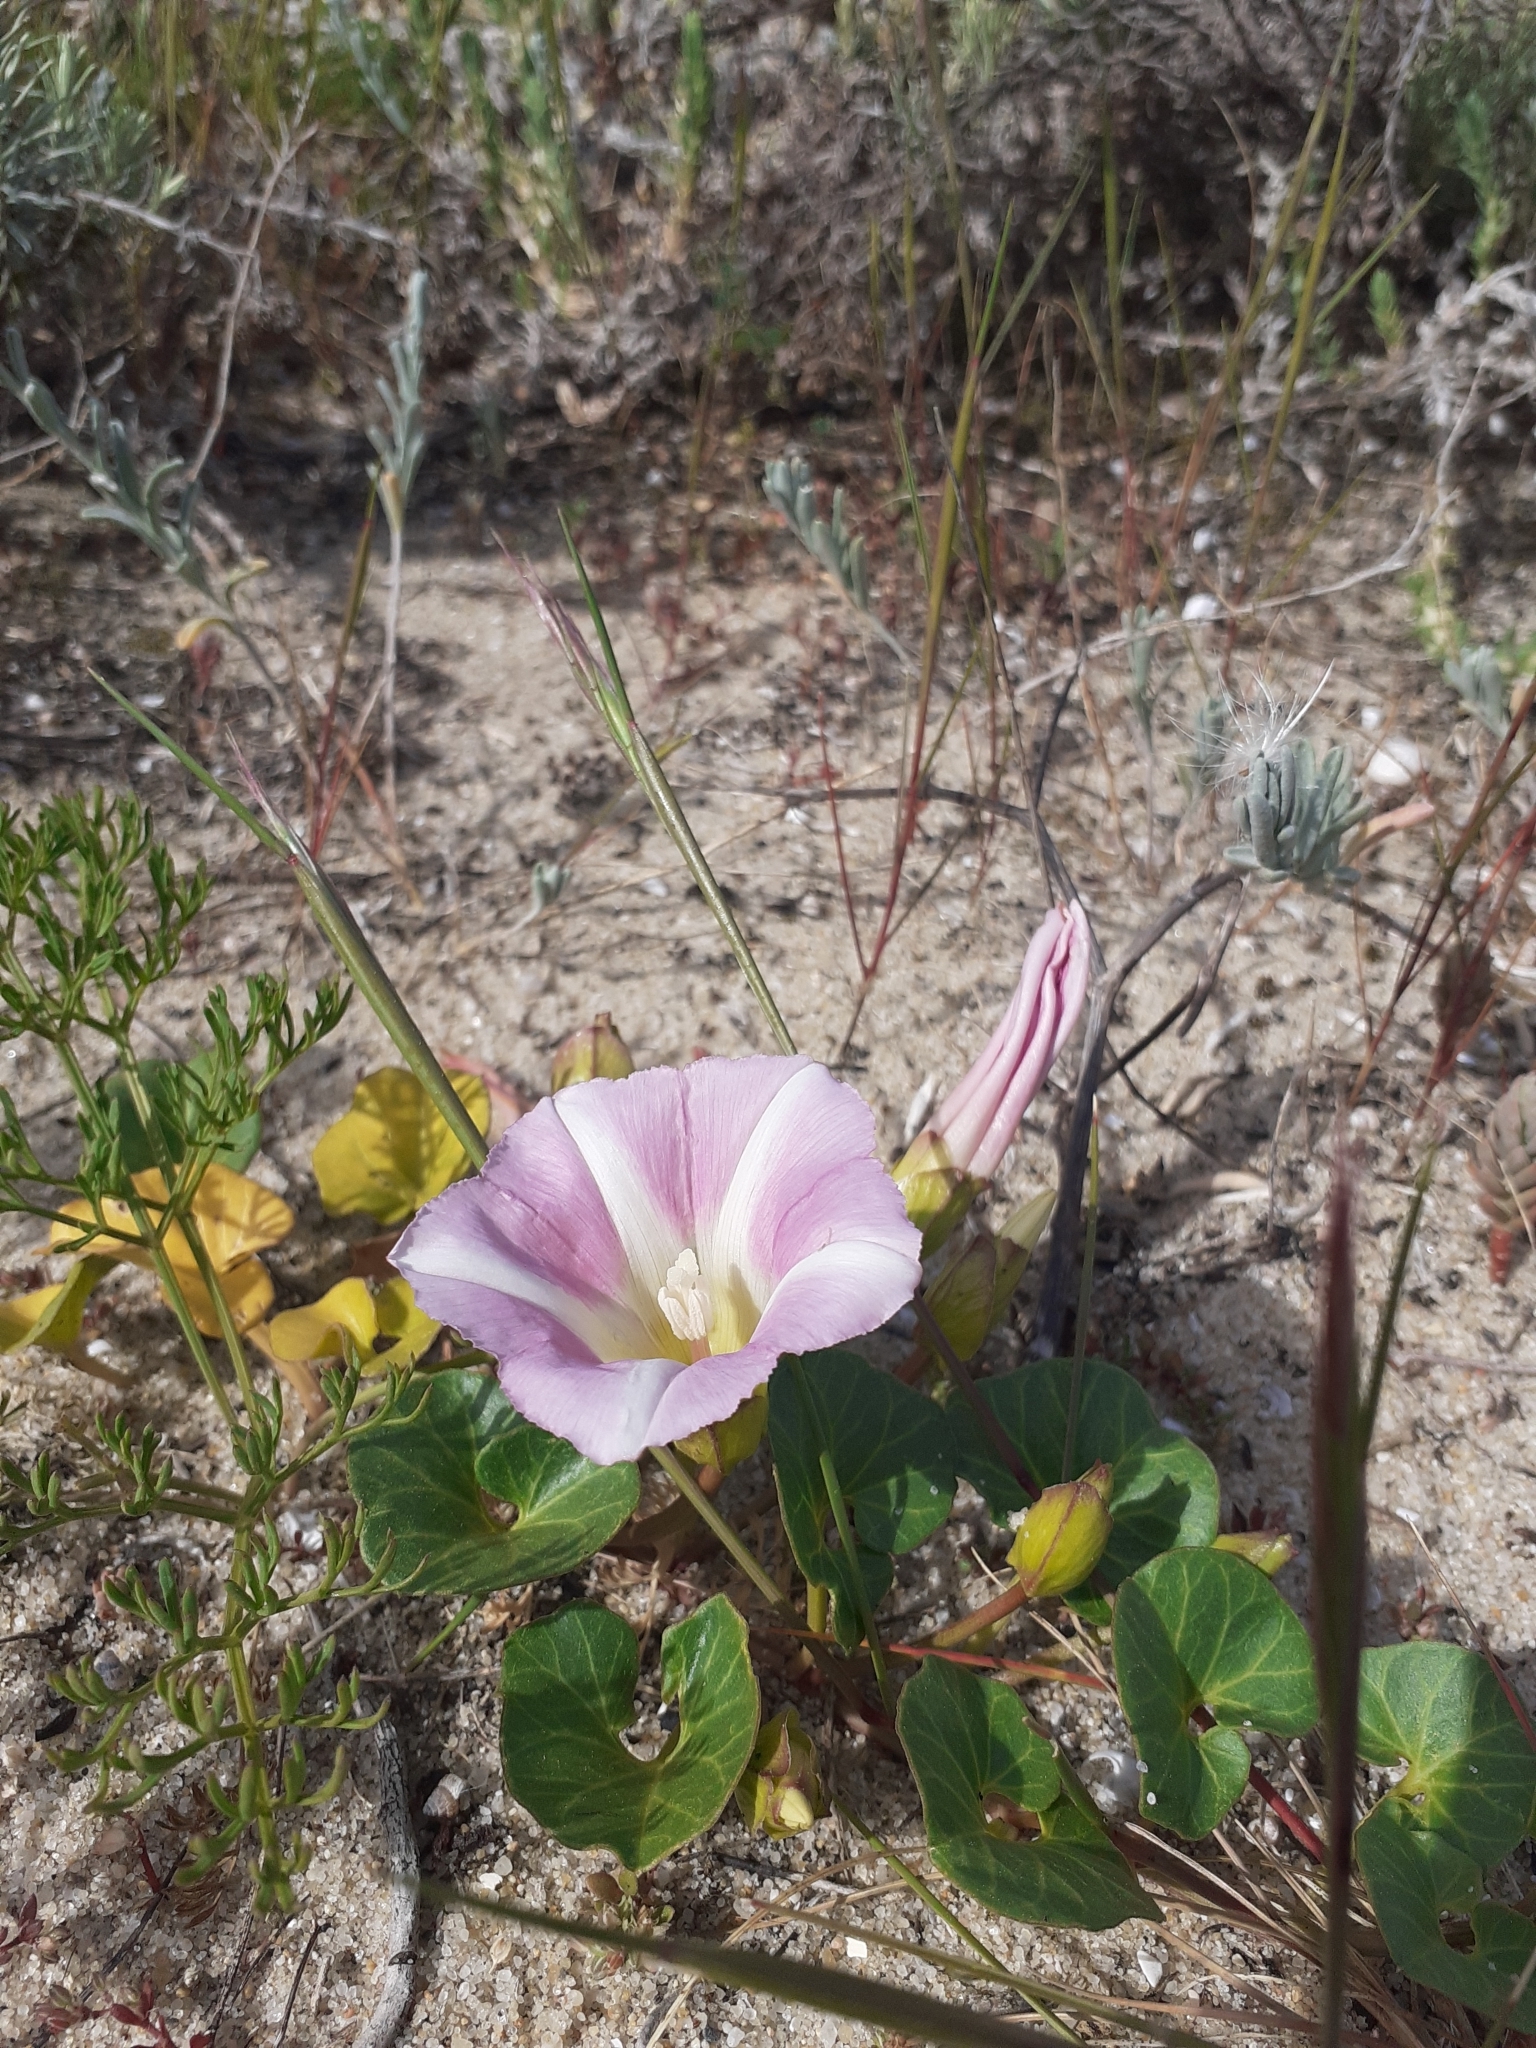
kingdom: Plantae
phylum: Tracheophyta
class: Magnoliopsida
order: Solanales
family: Convolvulaceae
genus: Calystegia
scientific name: Calystegia soldanella
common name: Sea bindweed
